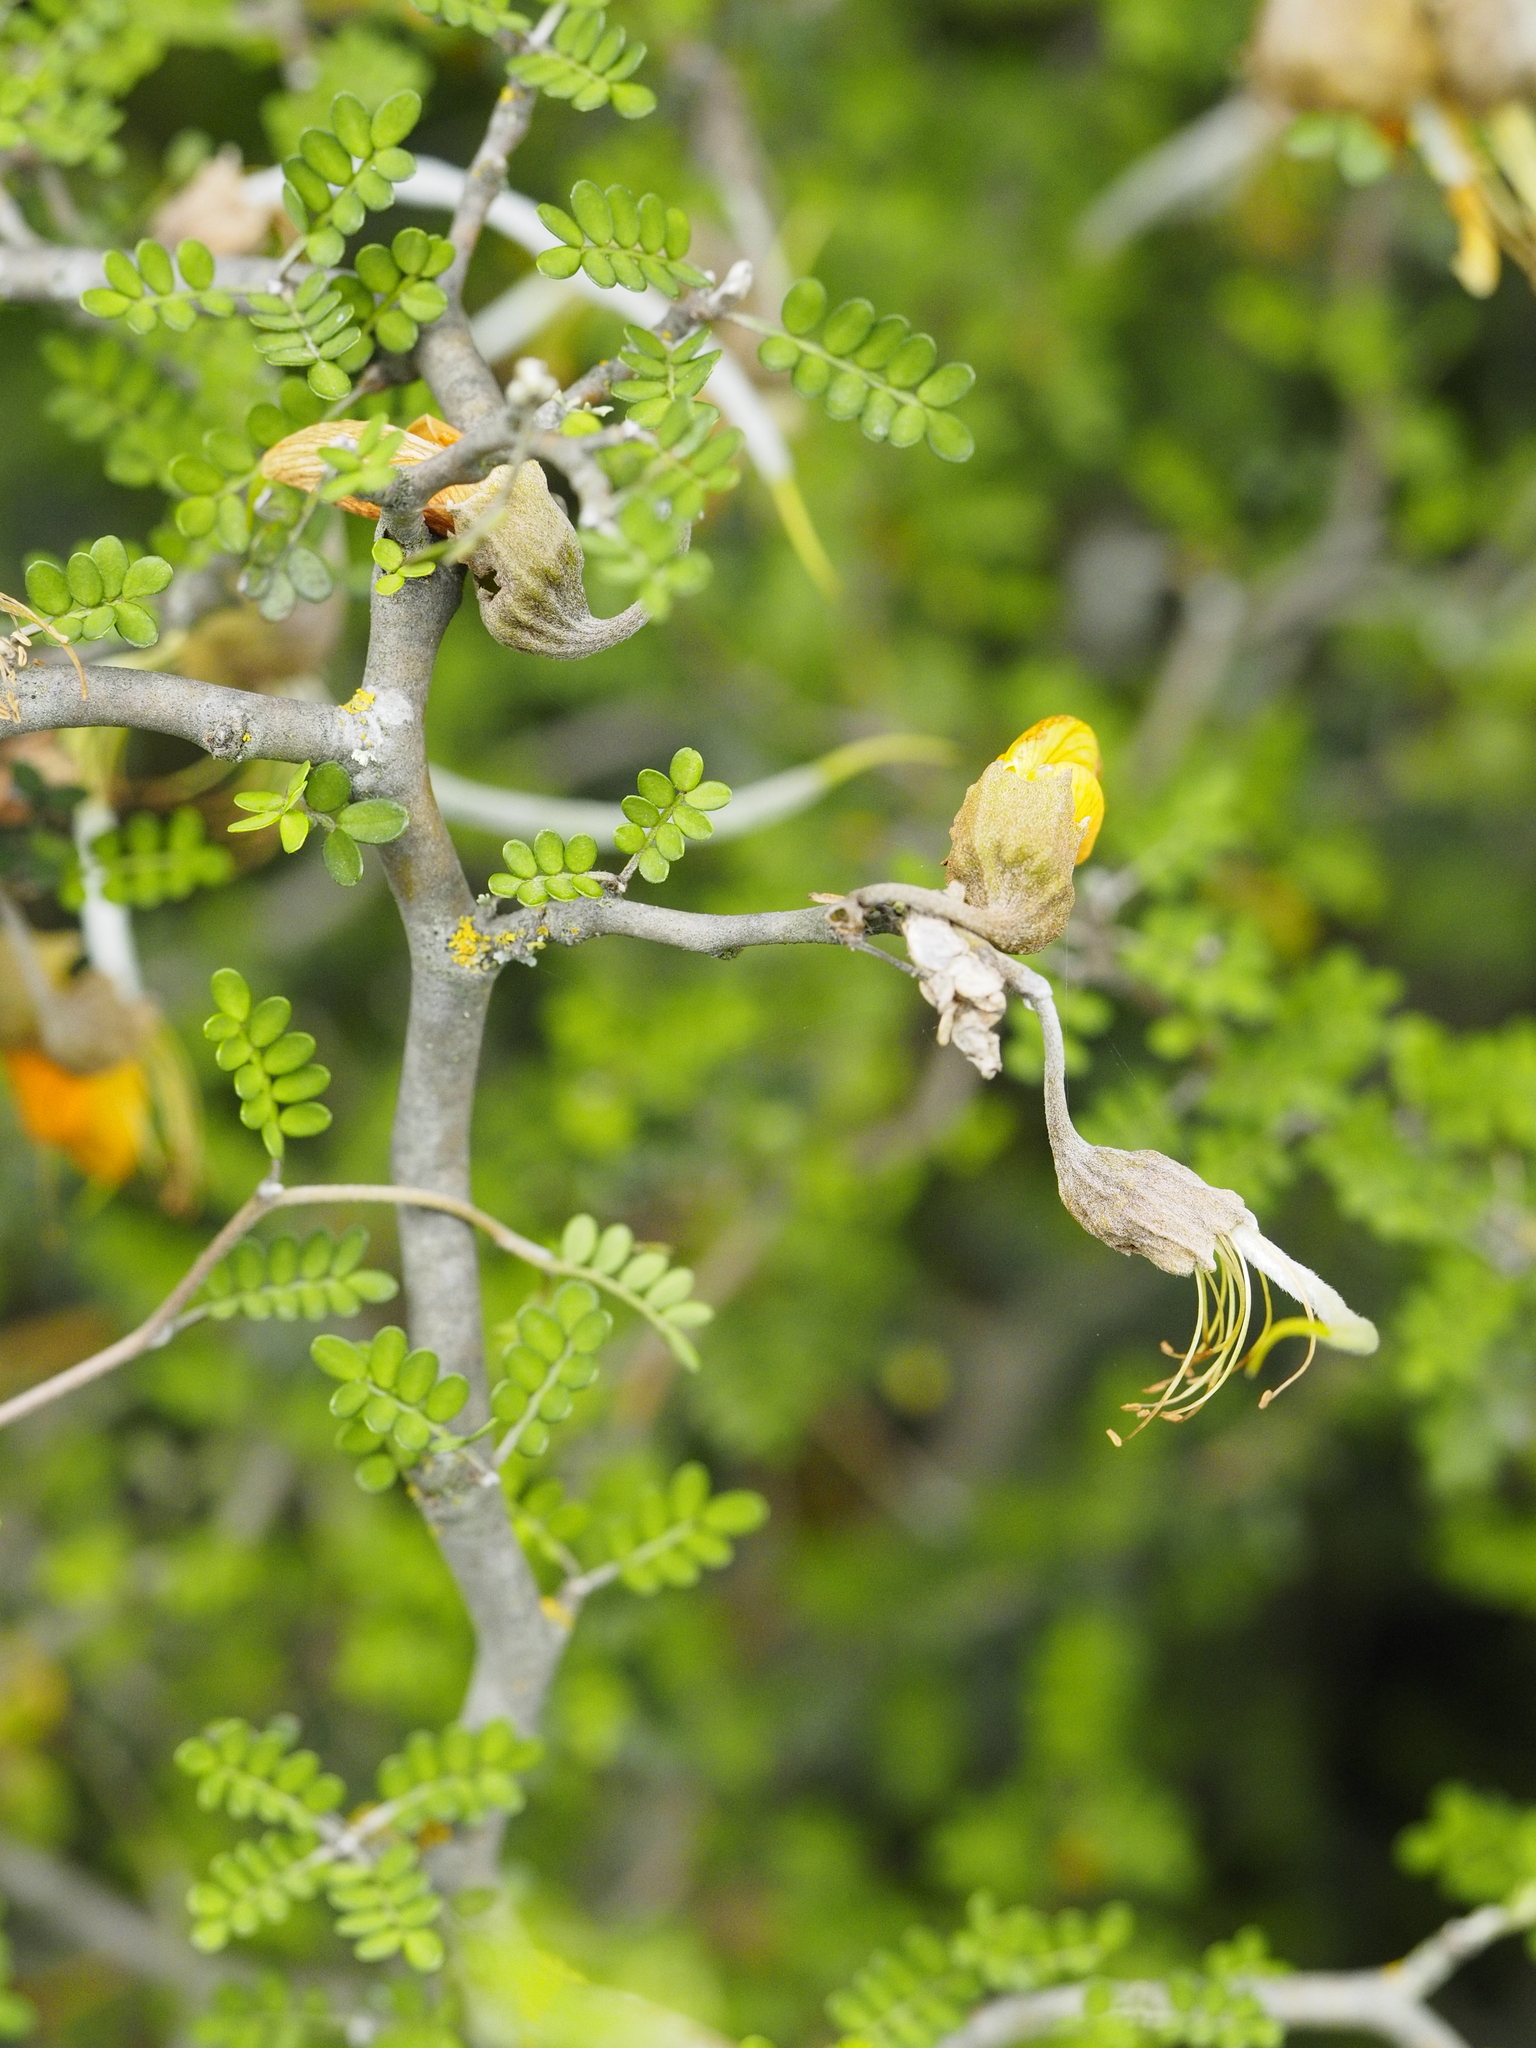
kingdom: Plantae
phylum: Tracheophyta
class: Magnoliopsida
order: Fabales
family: Fabaceae
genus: Sophora
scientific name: Sophora prostrata
